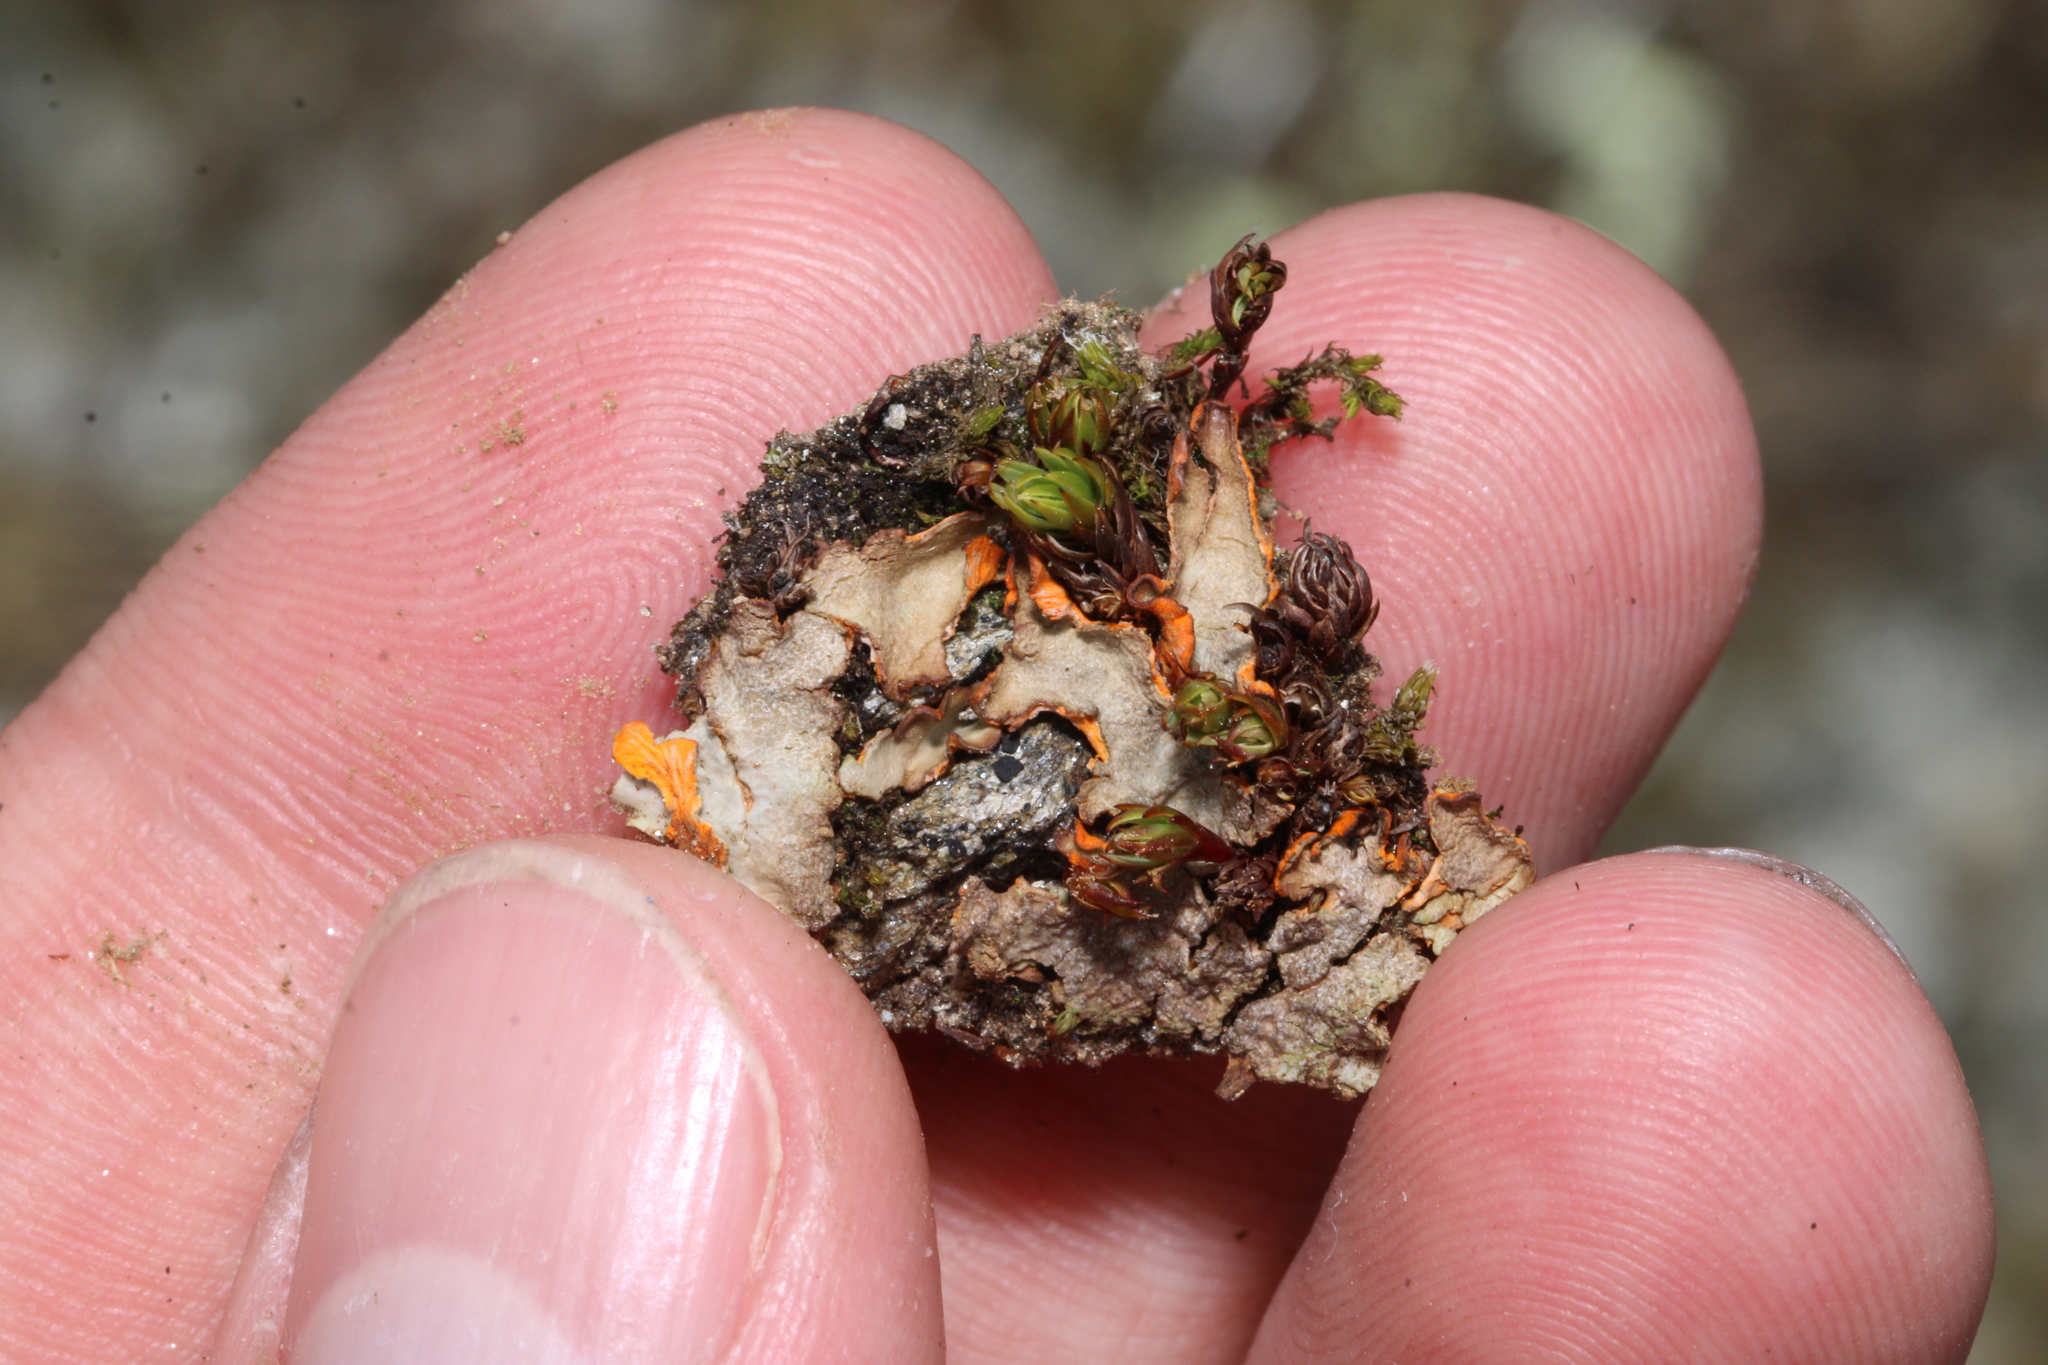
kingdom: Fungi
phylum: Ascomycota
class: Lecanoromycetes
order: Peltigerales
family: Peltigeraceae
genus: Solorina
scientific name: Solorina crocea
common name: Mountain saffron
